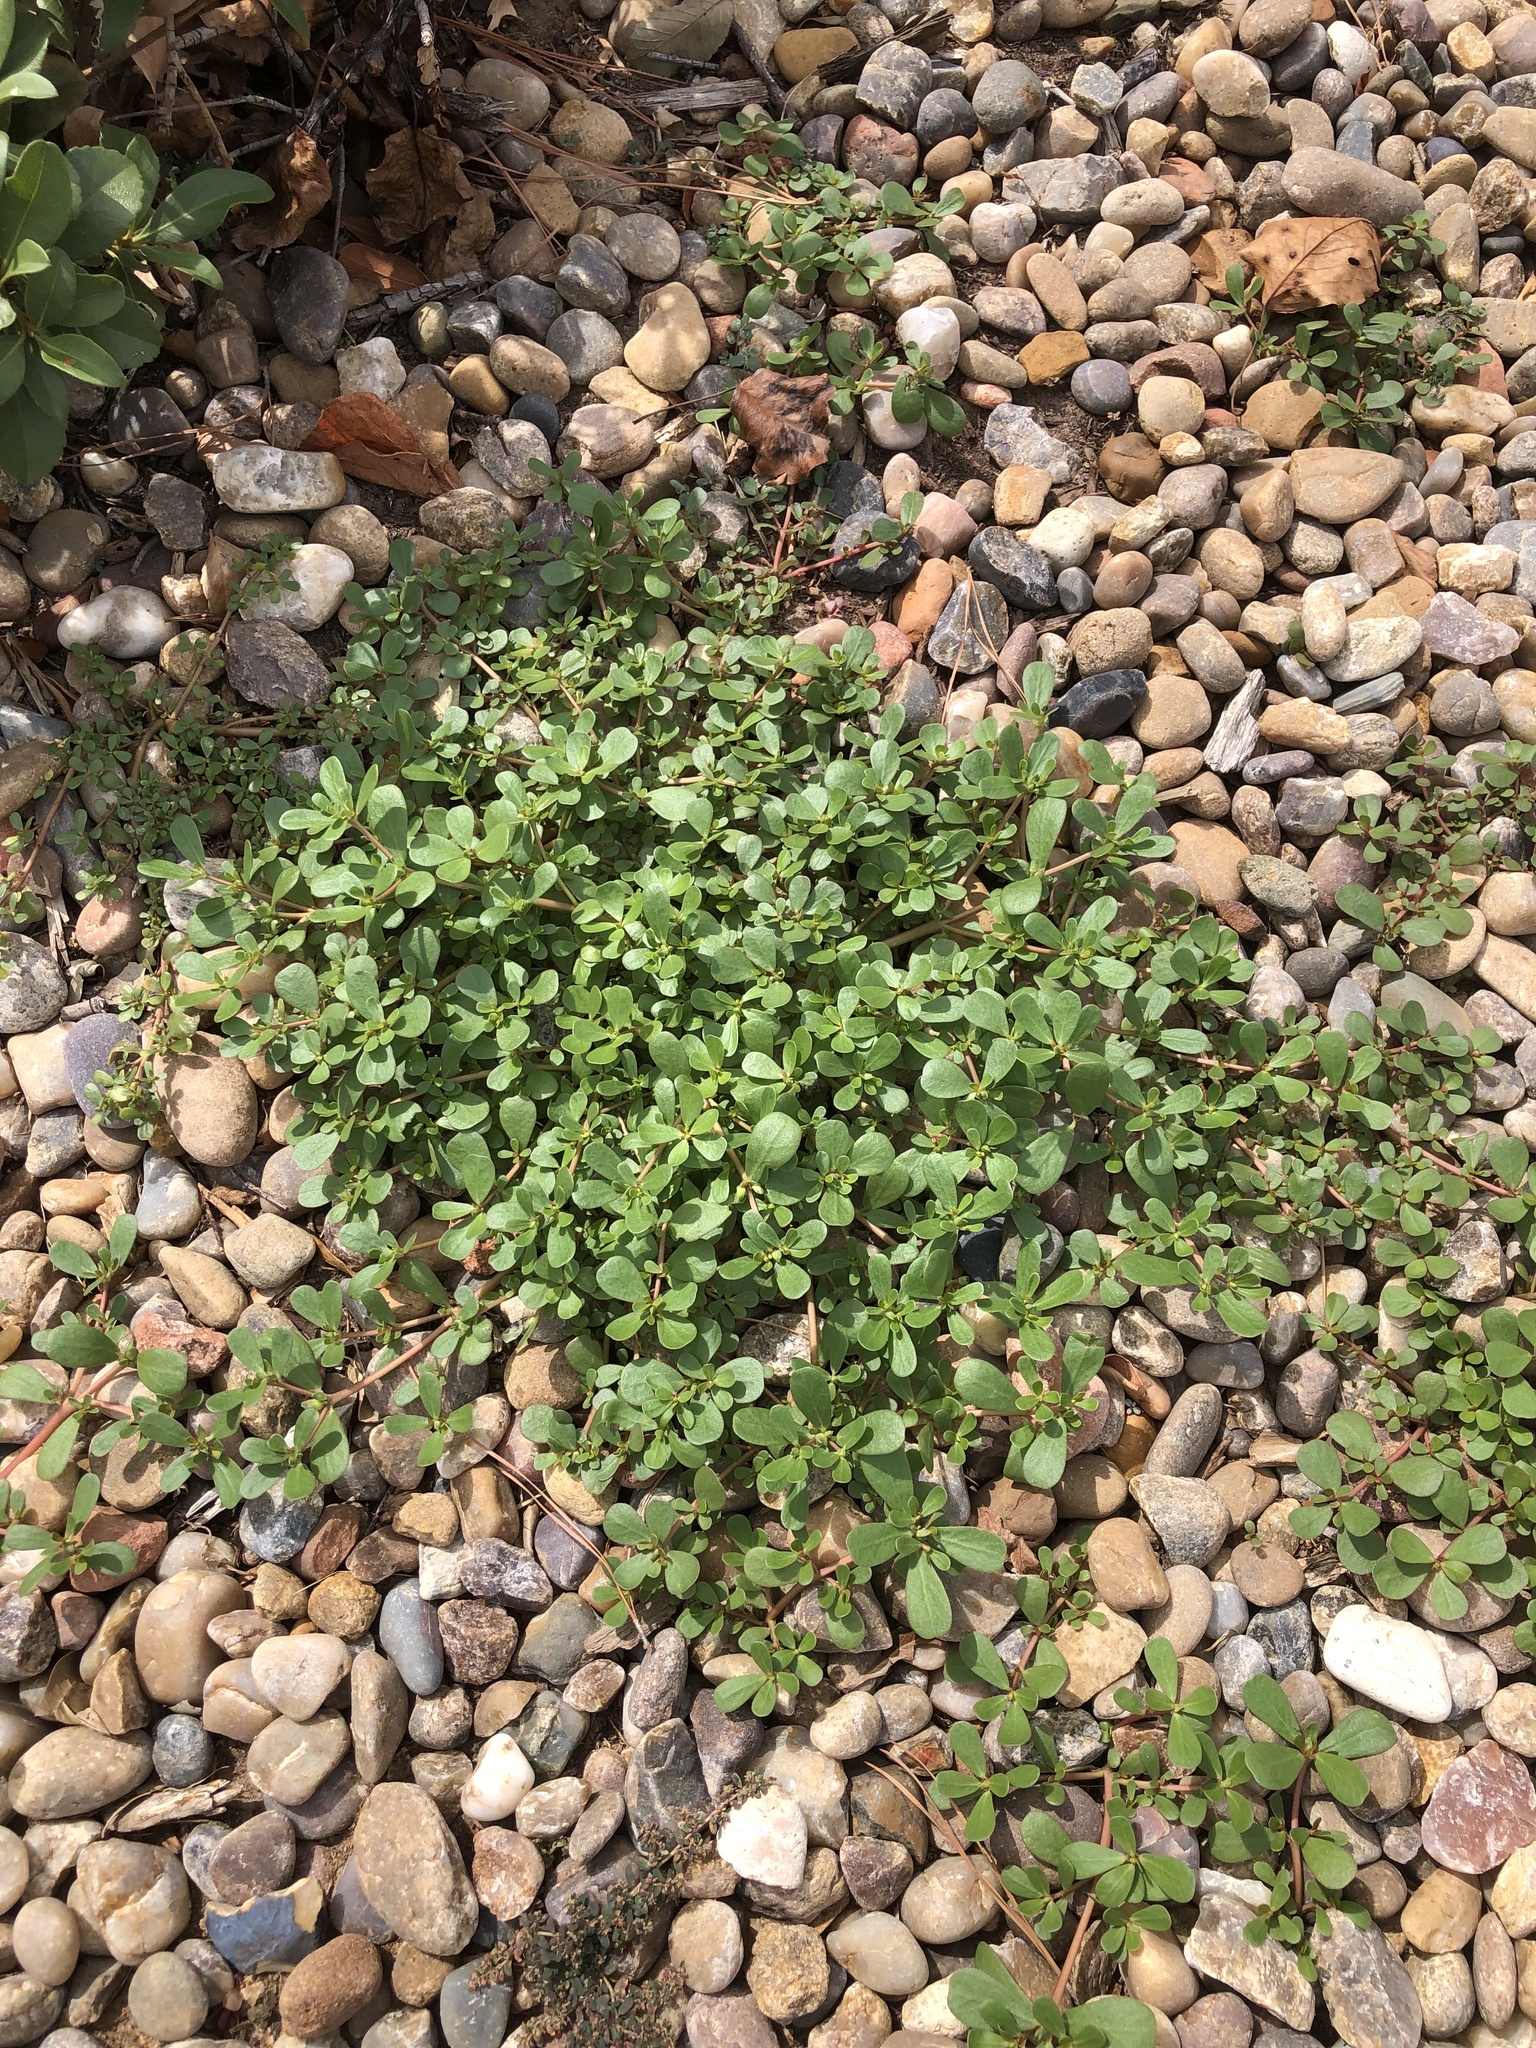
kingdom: Plantae
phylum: Tracheophyta
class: Magnoliopsida
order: Caryophyllales
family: Portulacaceae
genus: Portulaca
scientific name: Portulaca oleracea
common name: Common purslane
